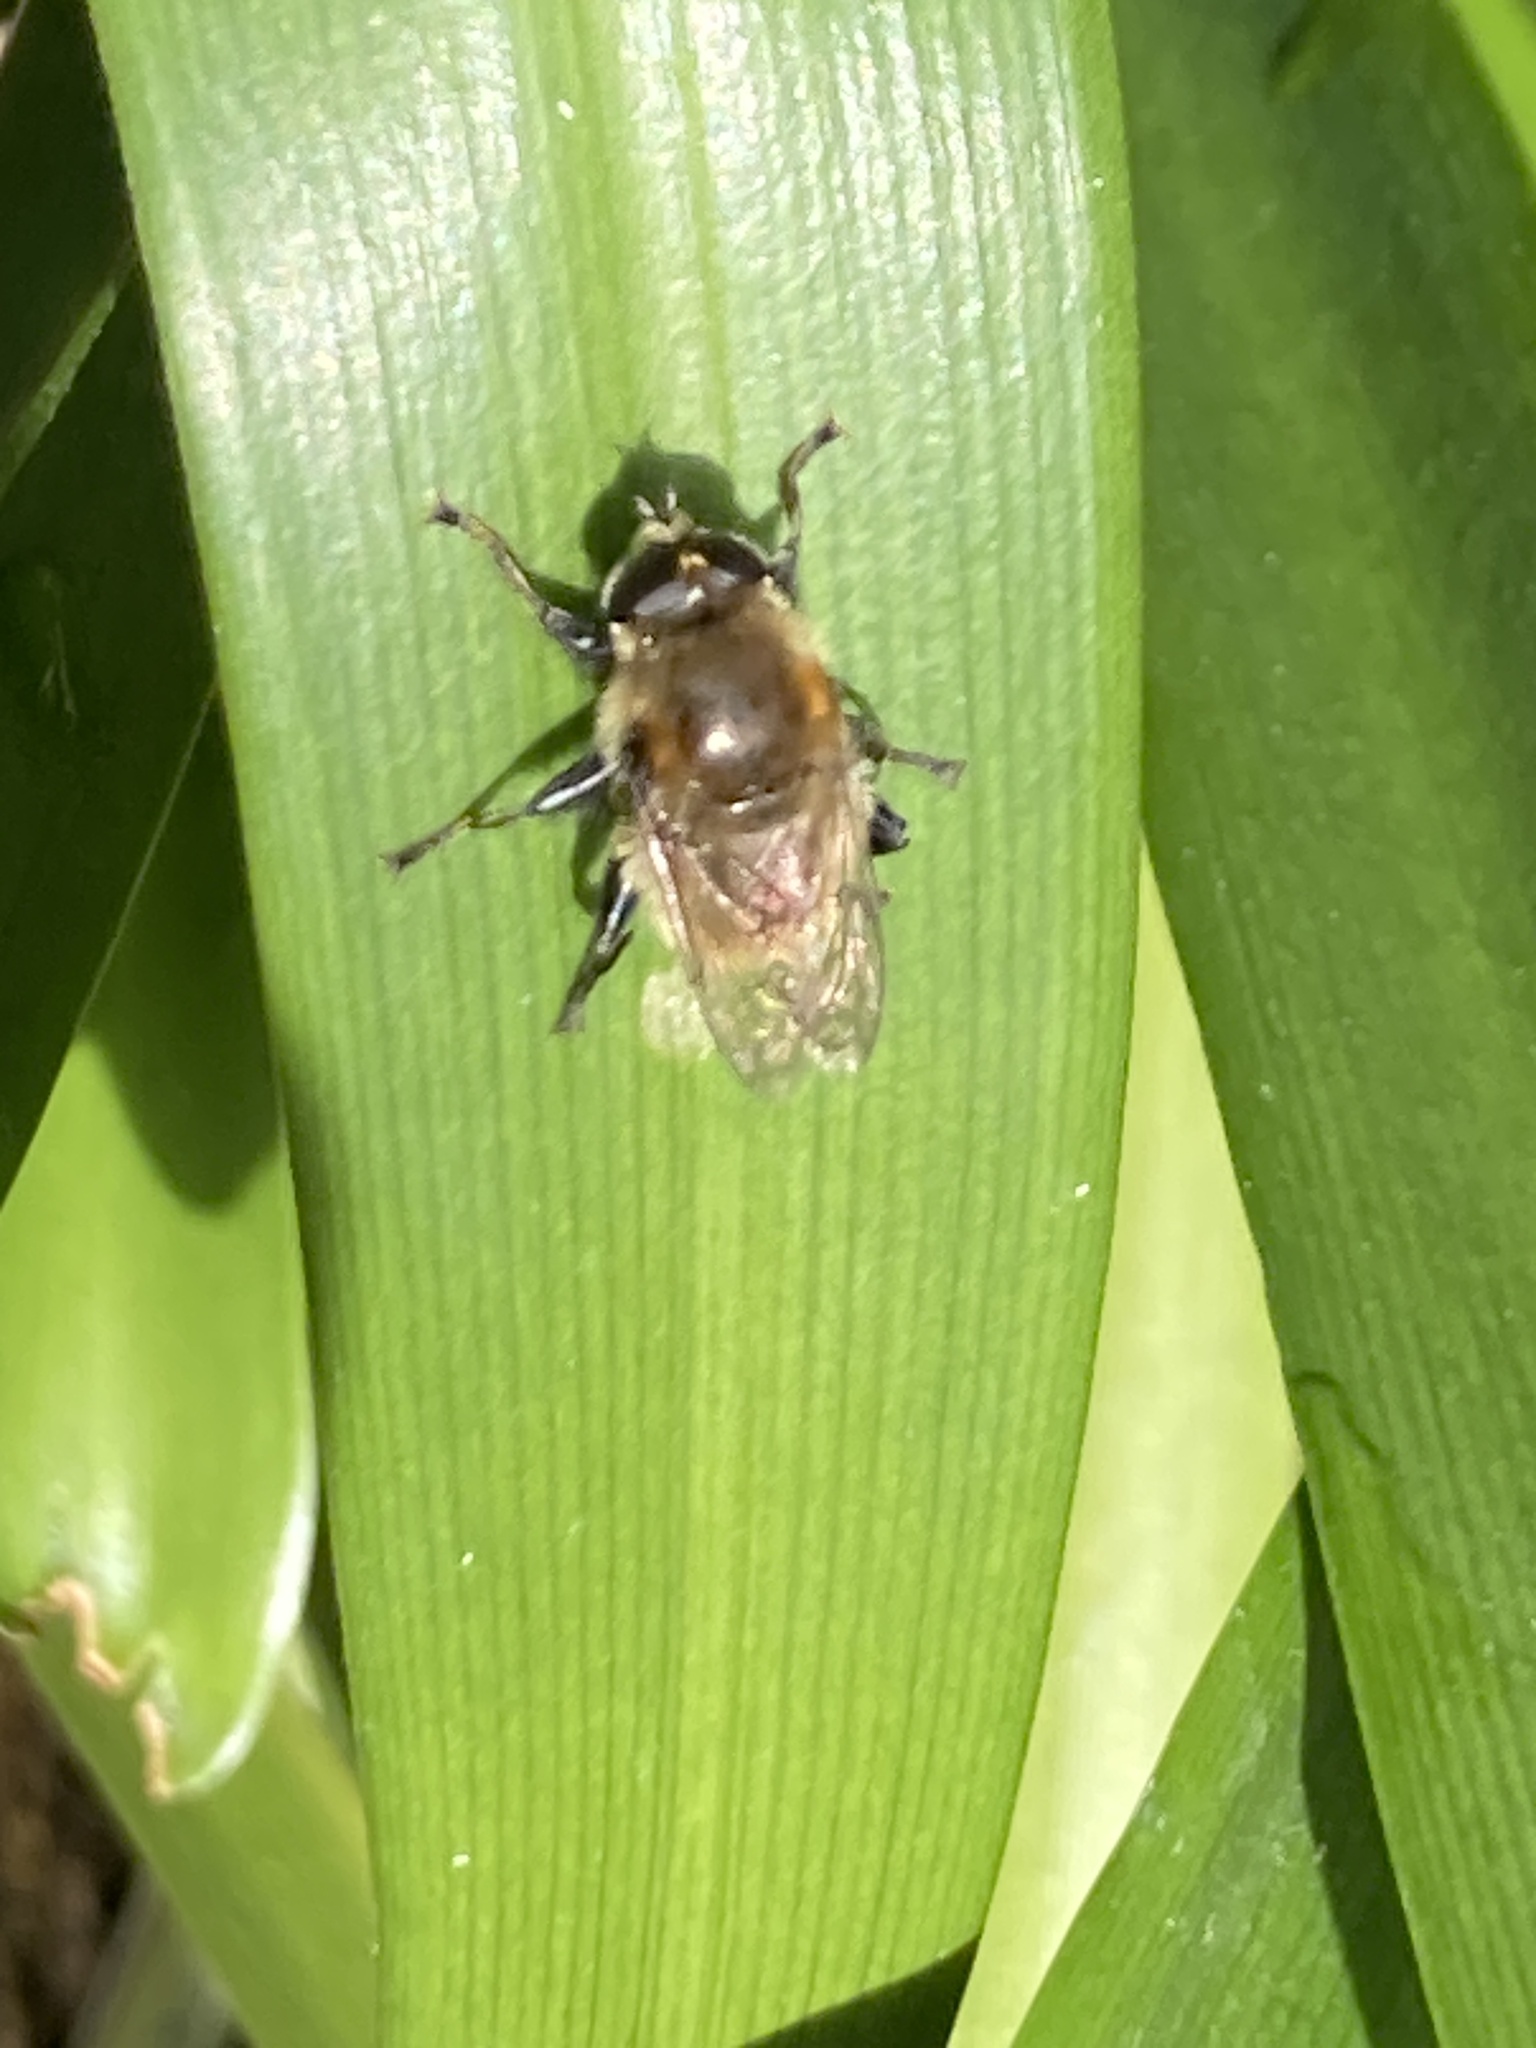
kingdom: Animalia
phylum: Arthropoda
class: Insecta
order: Diptera
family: Syrphidae
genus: Merodon
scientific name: Merodon equestris
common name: Greater bulb-fly
